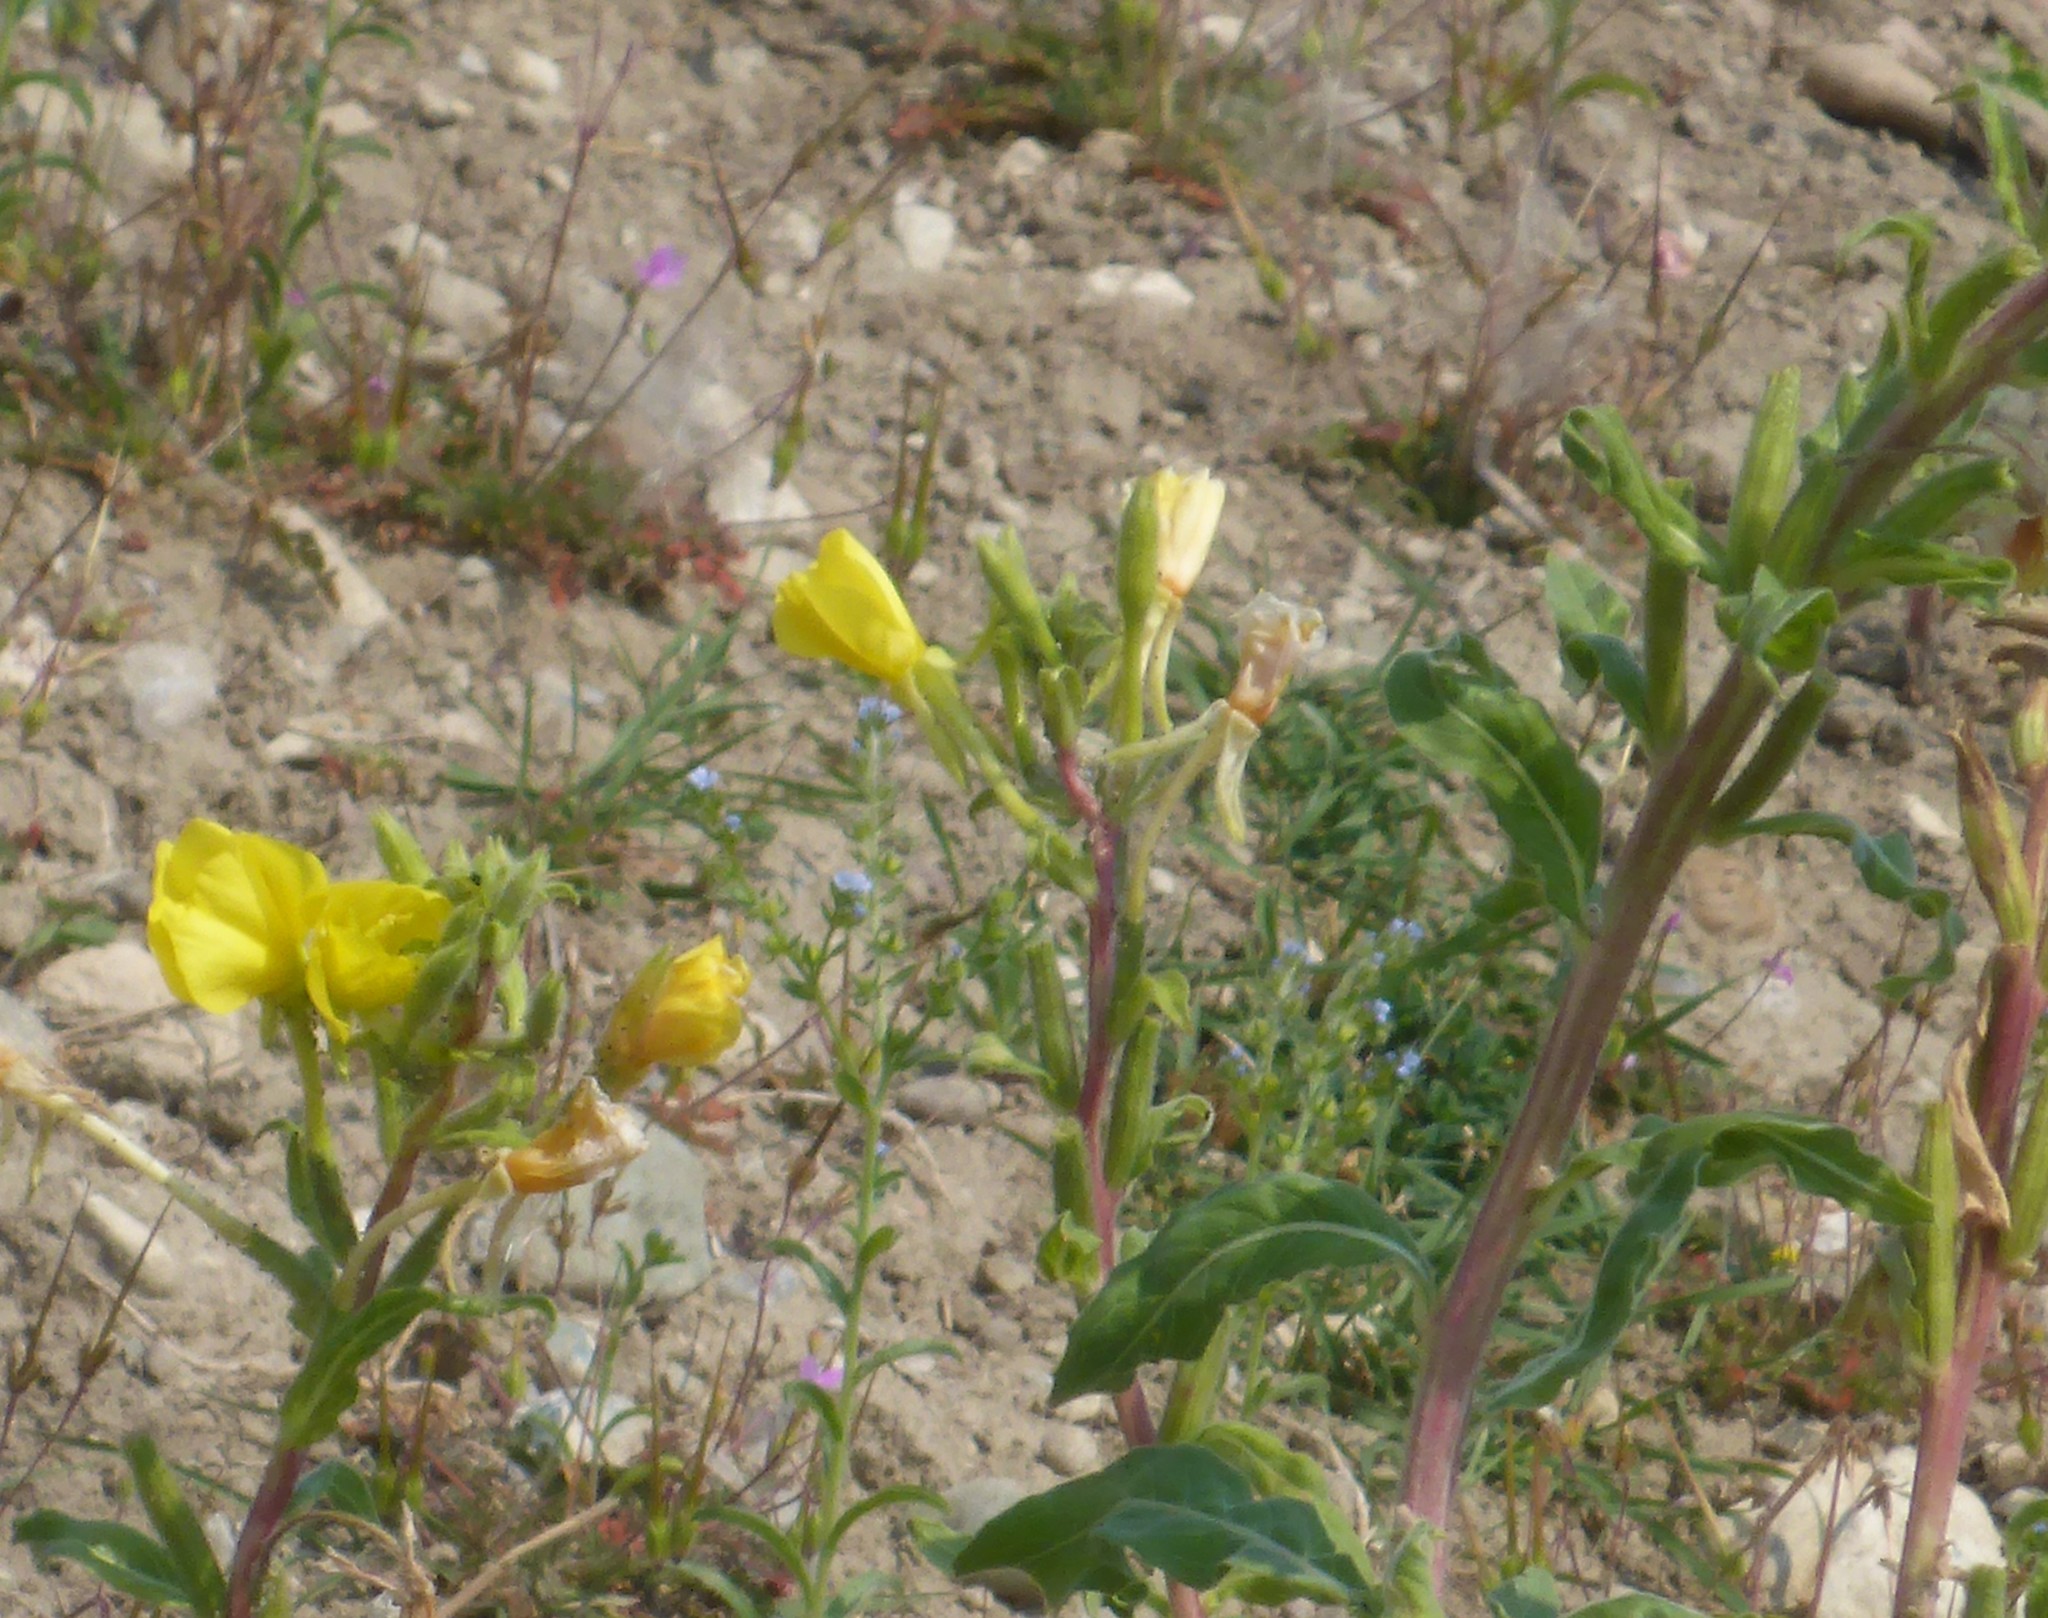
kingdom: Plantae
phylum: Tracheophyta
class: Magnoliopsida
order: Myrtales
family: Onagraceae
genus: Oenothera
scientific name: Oenothera biennis
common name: Common evening-primrose
